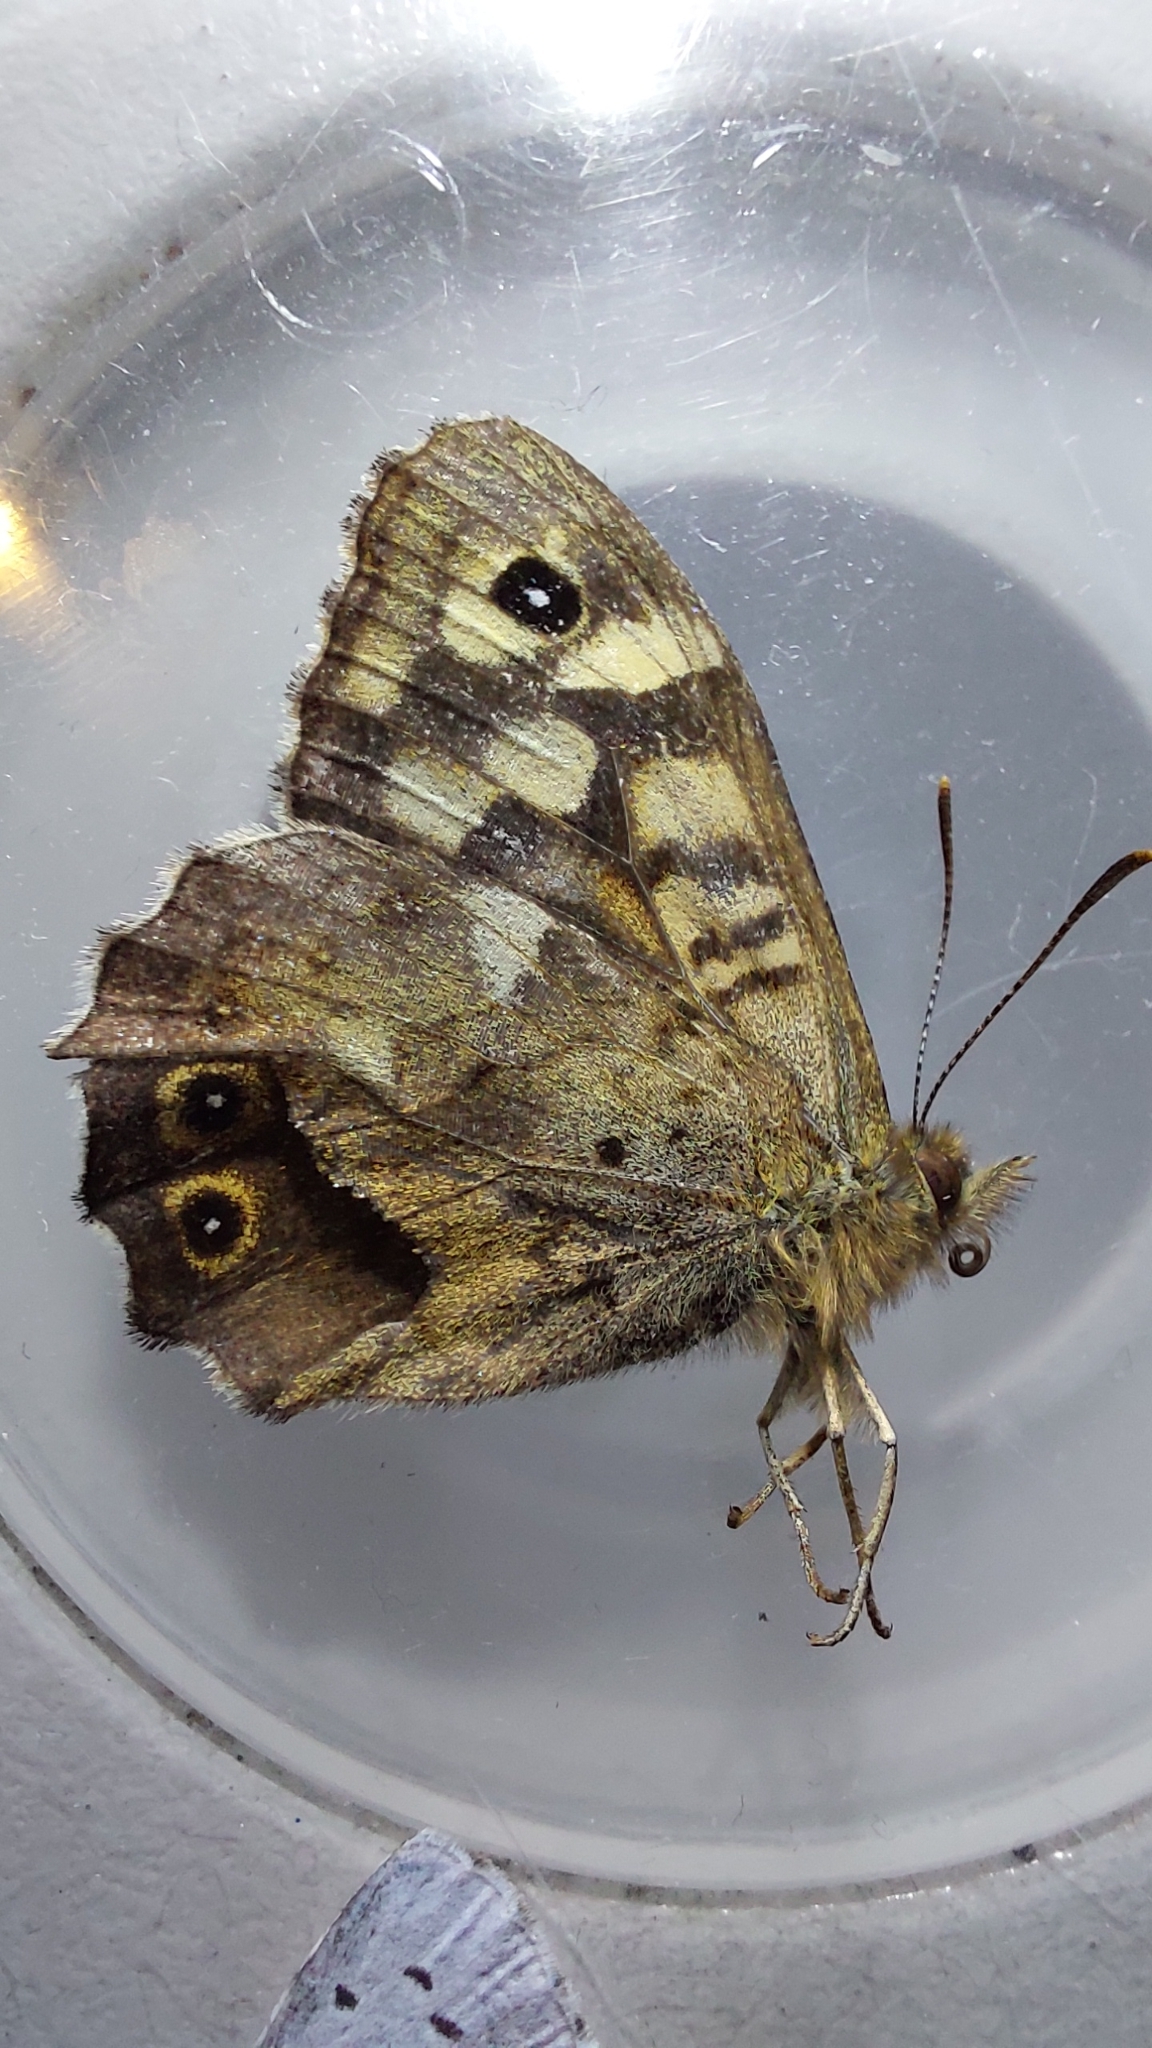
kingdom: Animalia
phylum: Arthropoda
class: Insecta
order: Lepidoptera
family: Nymphalidae
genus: Pararge
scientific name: Pararge aegeria
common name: Speckled wood
